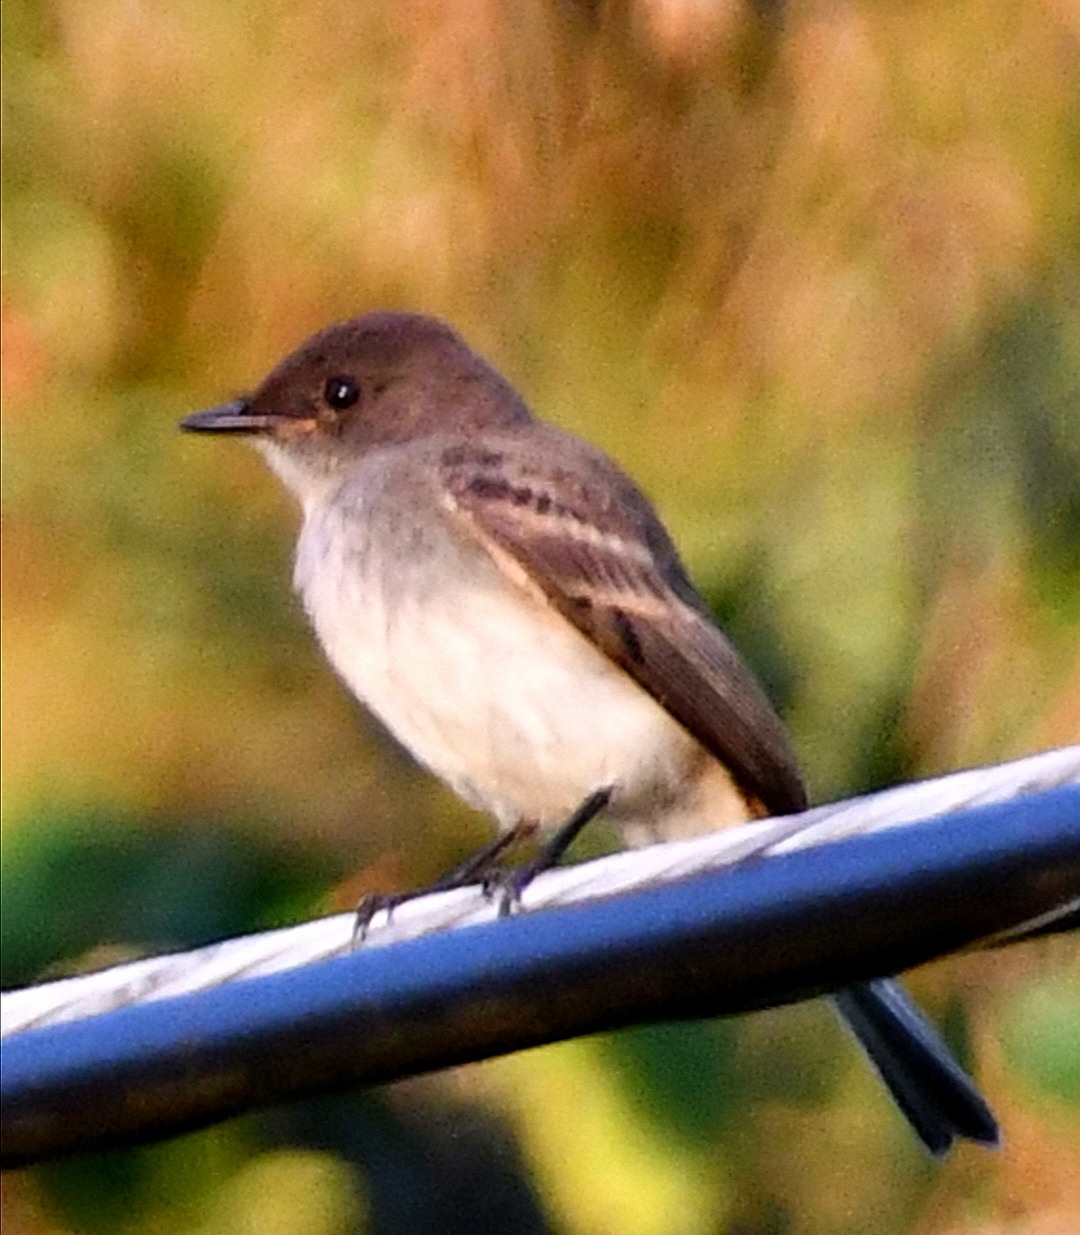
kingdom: Animalia
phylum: Chordata
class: Aves
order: Passeriformes
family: Tyrannidae
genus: Sayornis
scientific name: Sayornis phoebe
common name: Eastern phoebe
